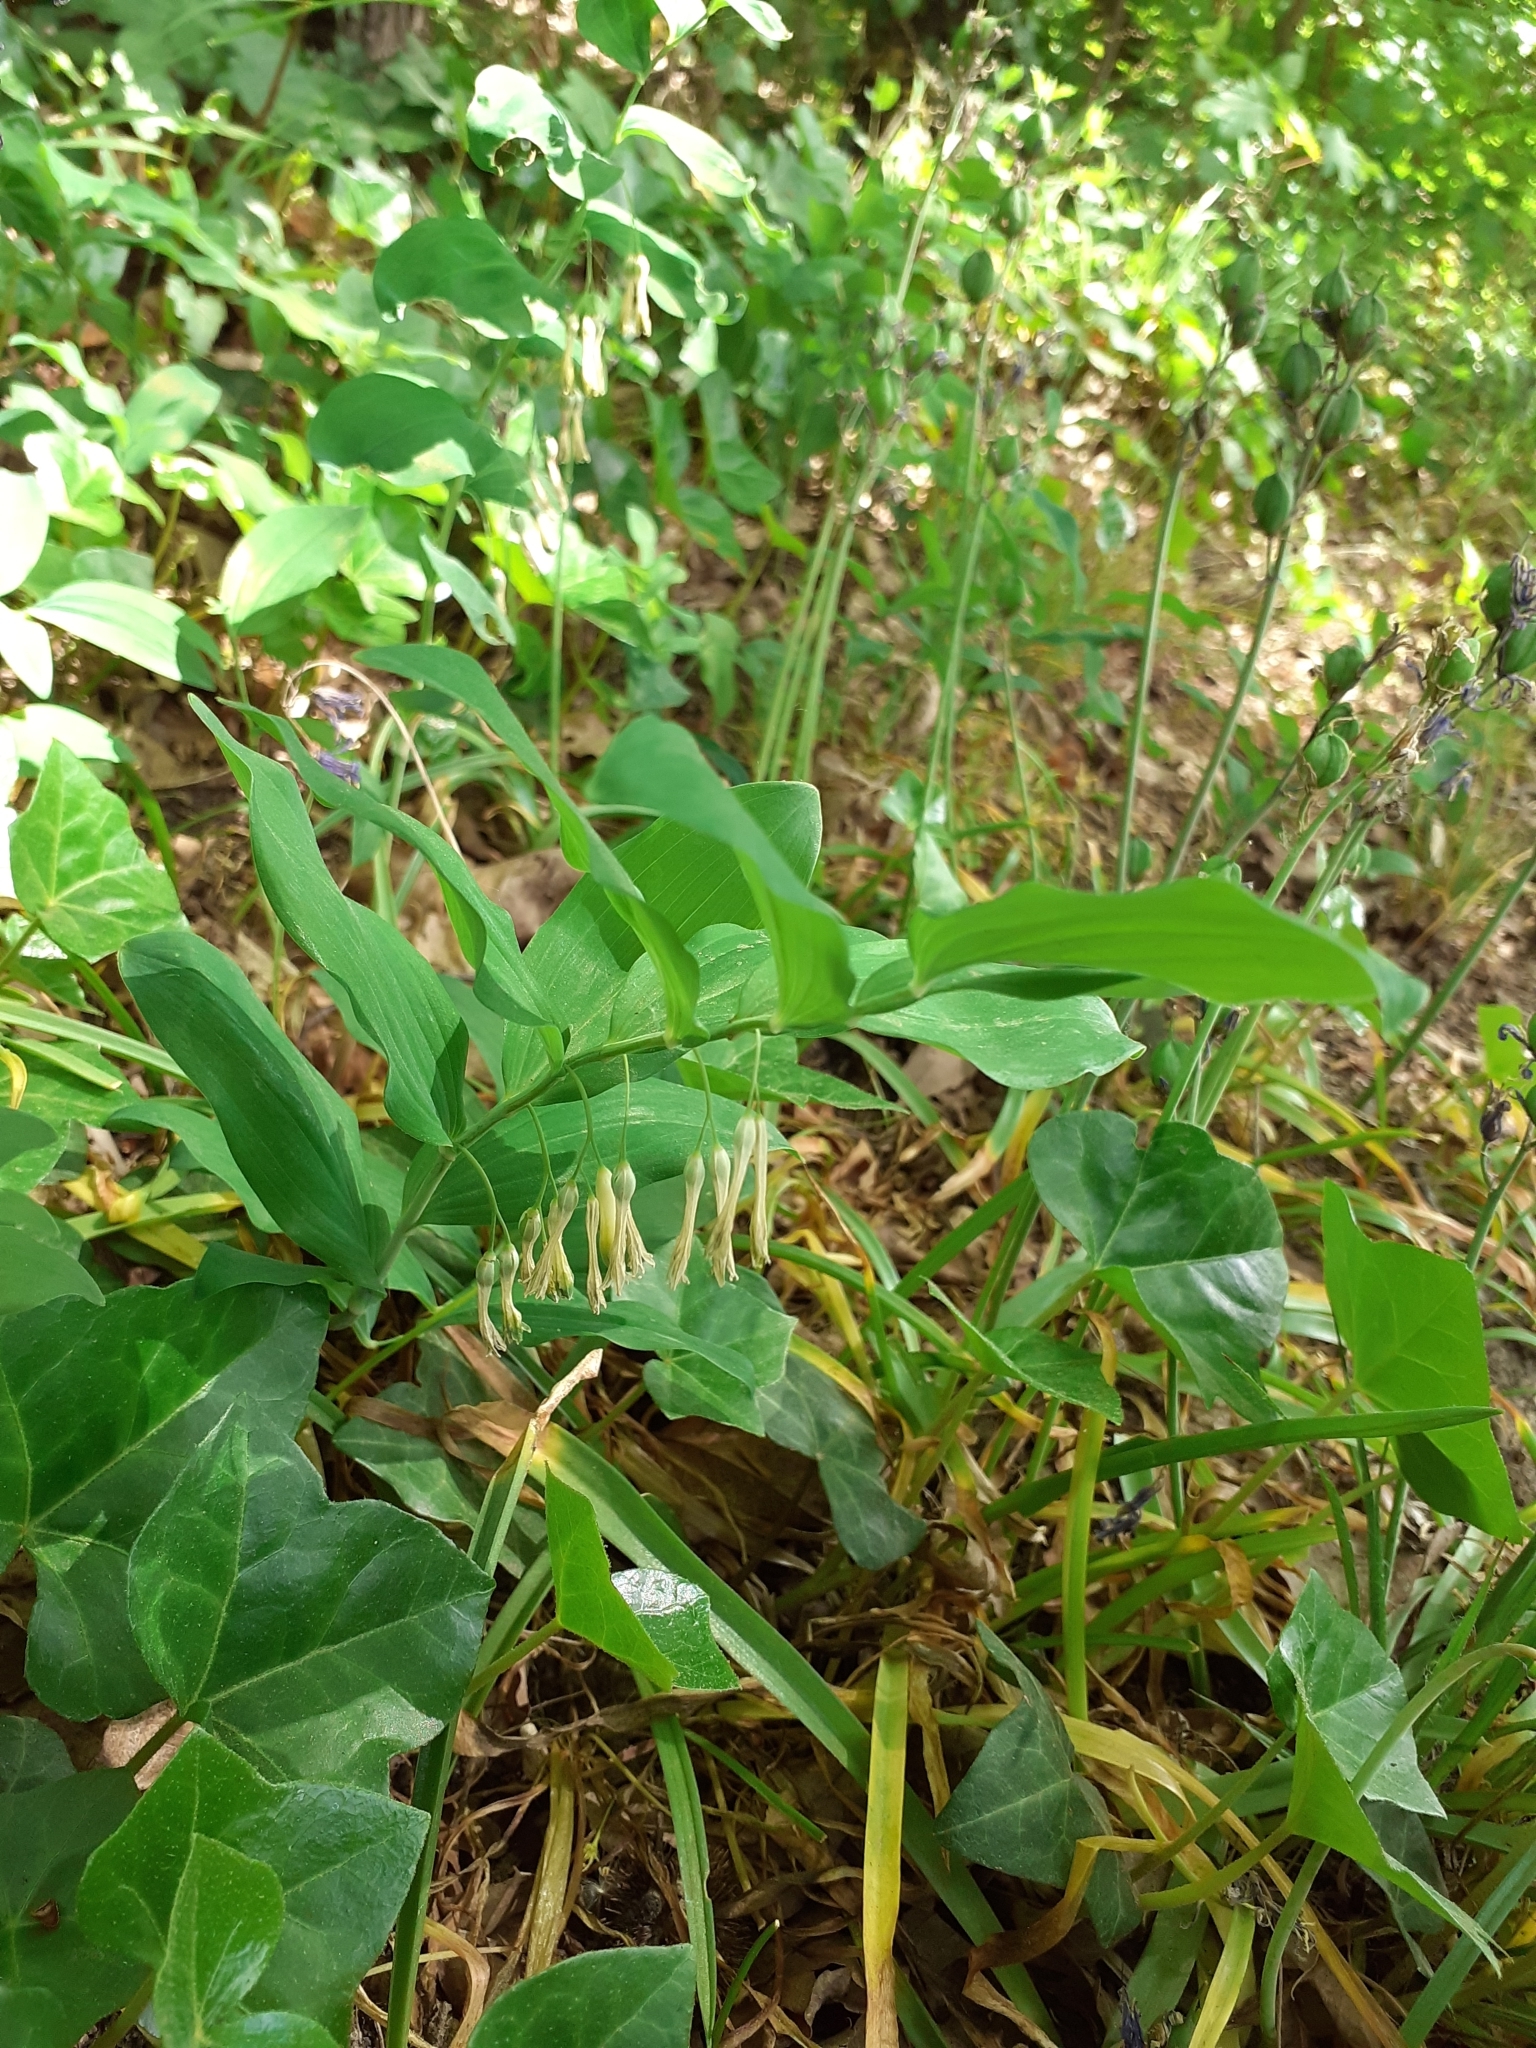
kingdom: Plantae
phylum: Tracheophyta
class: Liliopsida
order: Asparagales
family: Asparagaceae
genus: Polygonatum
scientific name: Polygonatum multiflorum
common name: Solomon's-seal
